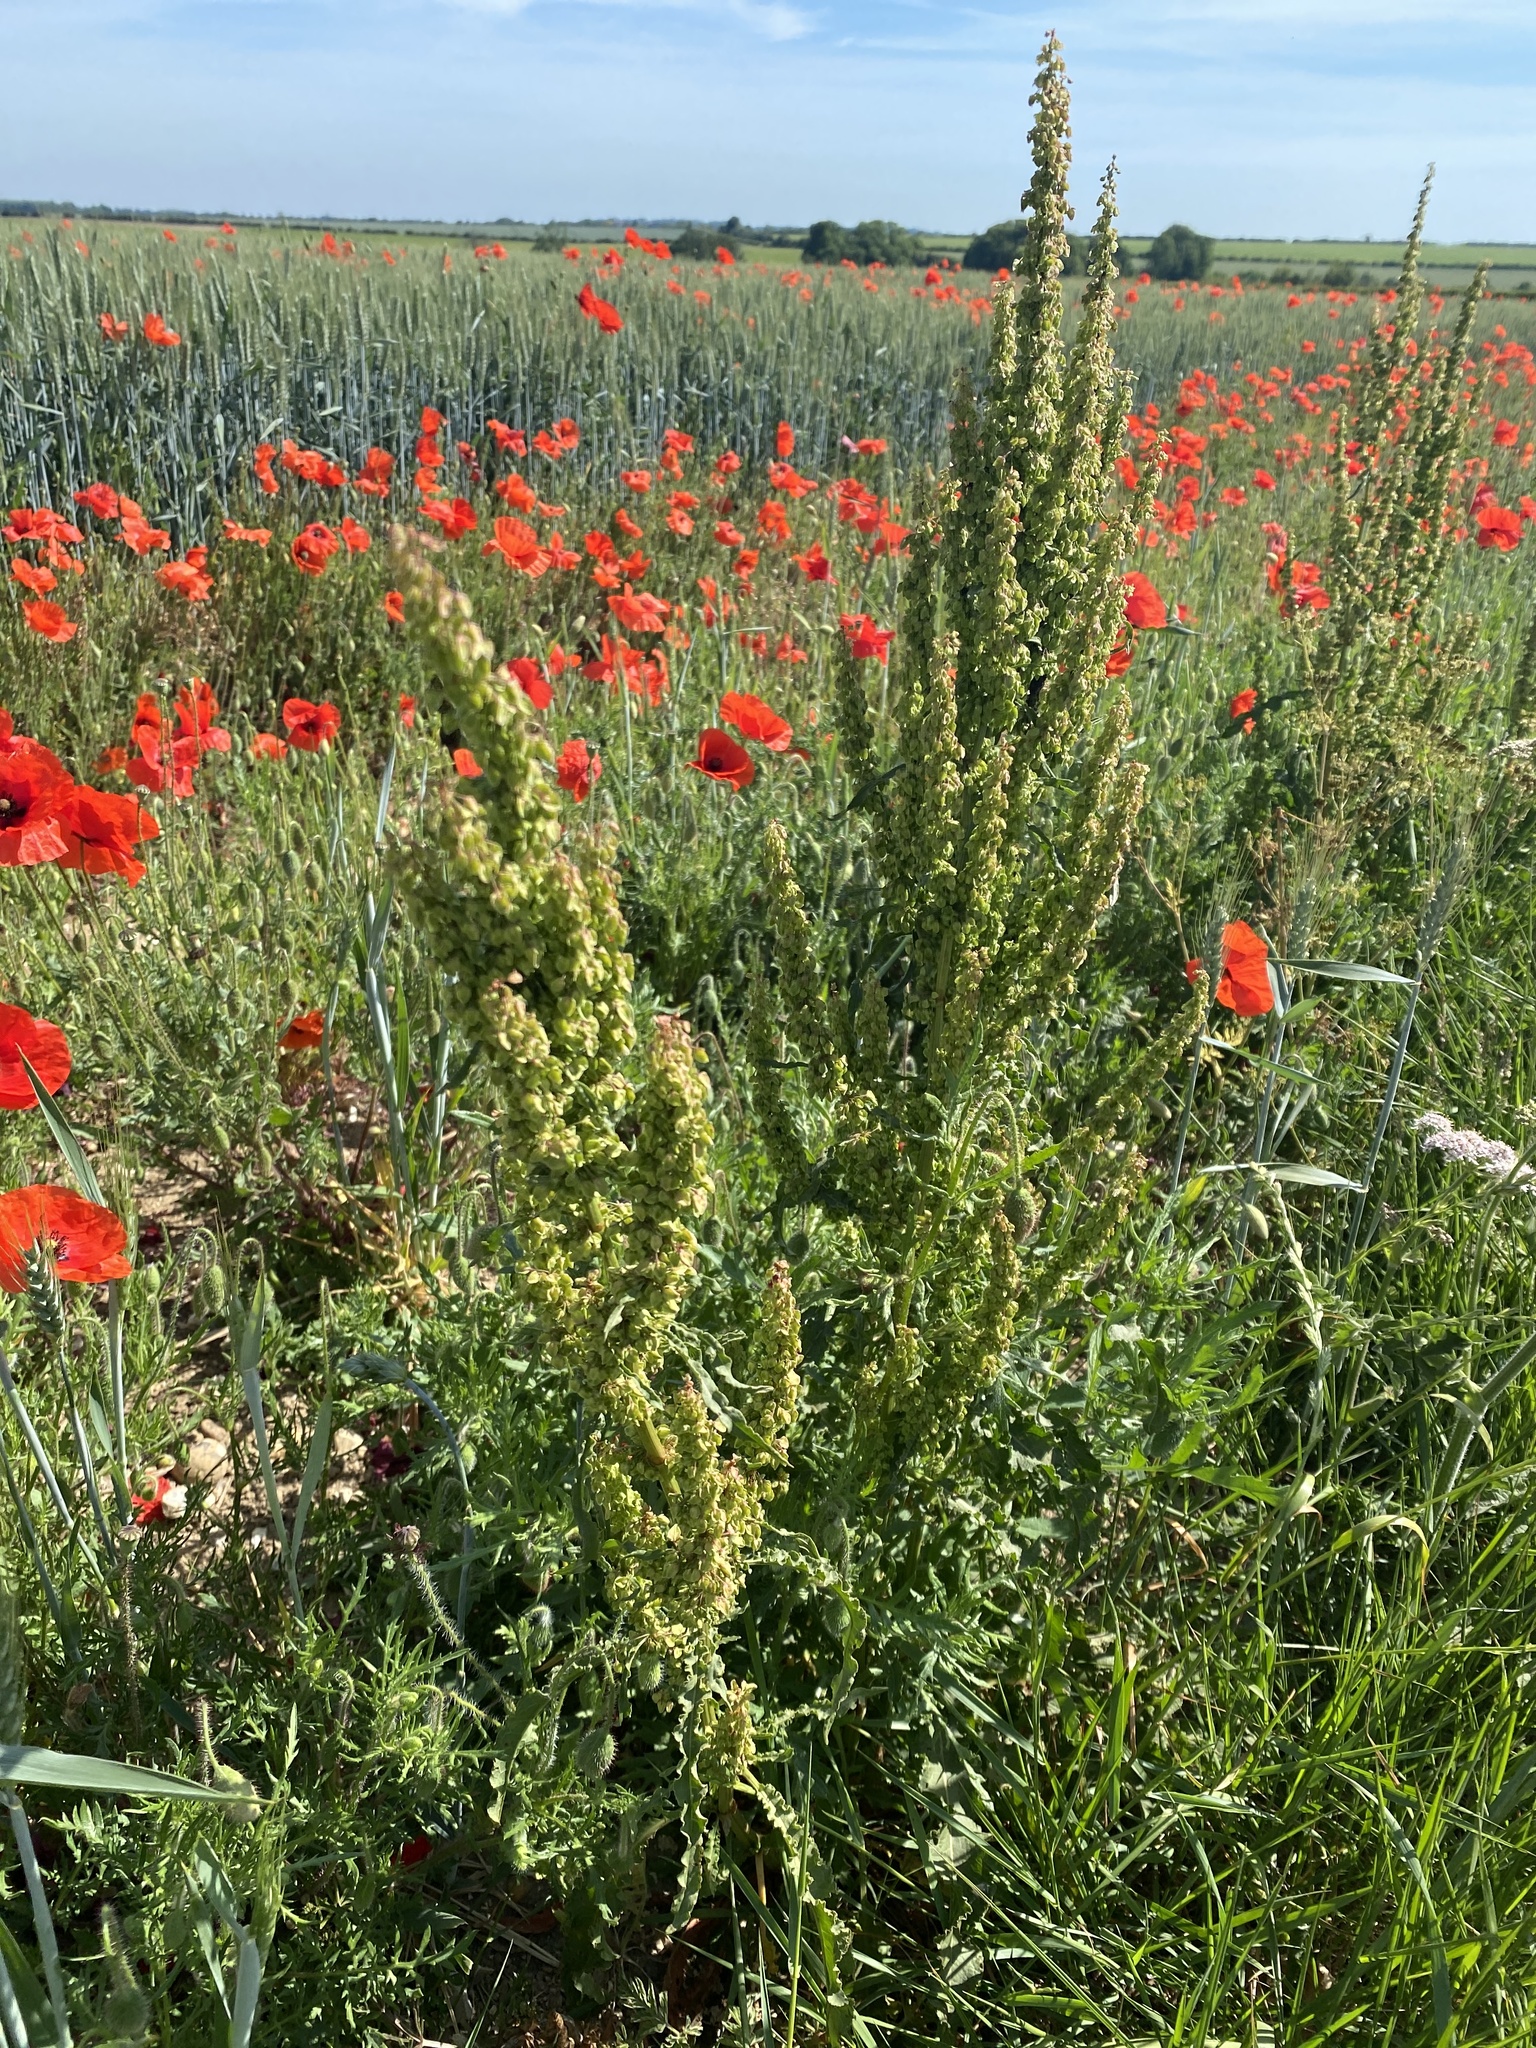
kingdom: Plantae
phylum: Tracheophyta
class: Magnoliopsida
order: Caryophyllales
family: Polygonaceae
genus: Rumex
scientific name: Rumex crispus
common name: Curled dock
